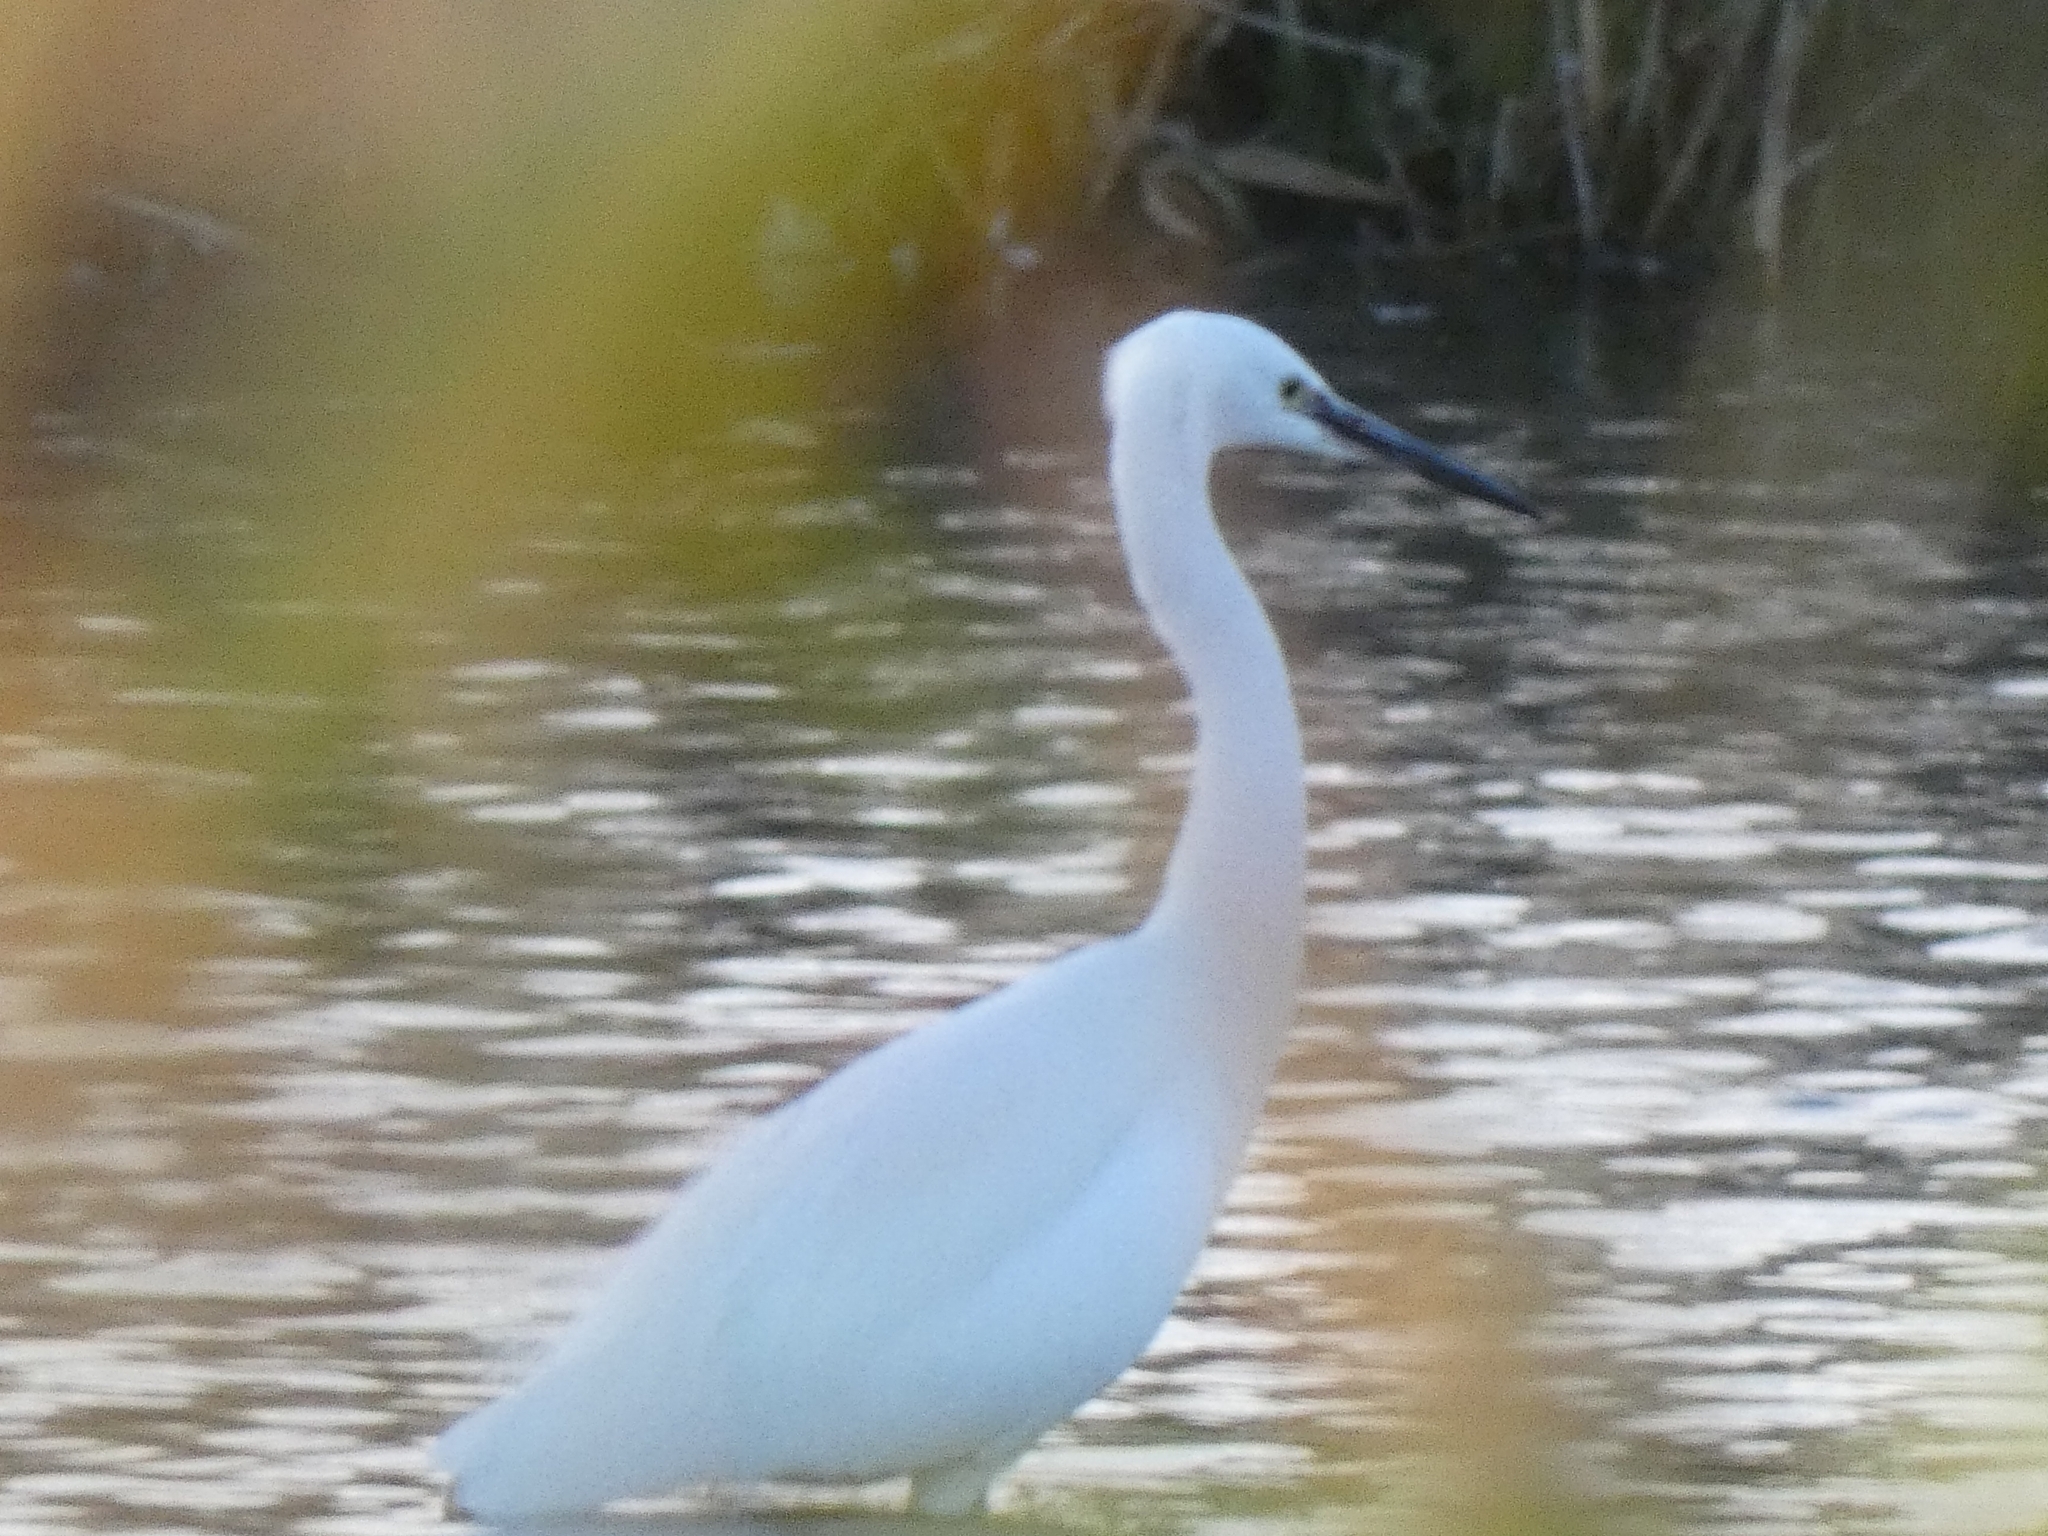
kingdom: Animalia
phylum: Chordata
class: Aves
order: Pelecaniformes
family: Ardeidae
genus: Egretta
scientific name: Egretta garzetta
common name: Little egret
